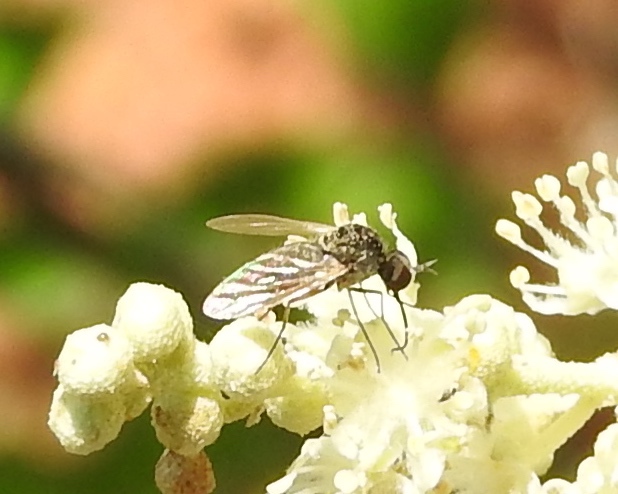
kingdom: Animalia
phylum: Arthropoda
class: Insecta
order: Diptera
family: Bombyliidae
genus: Geron
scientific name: Geron
